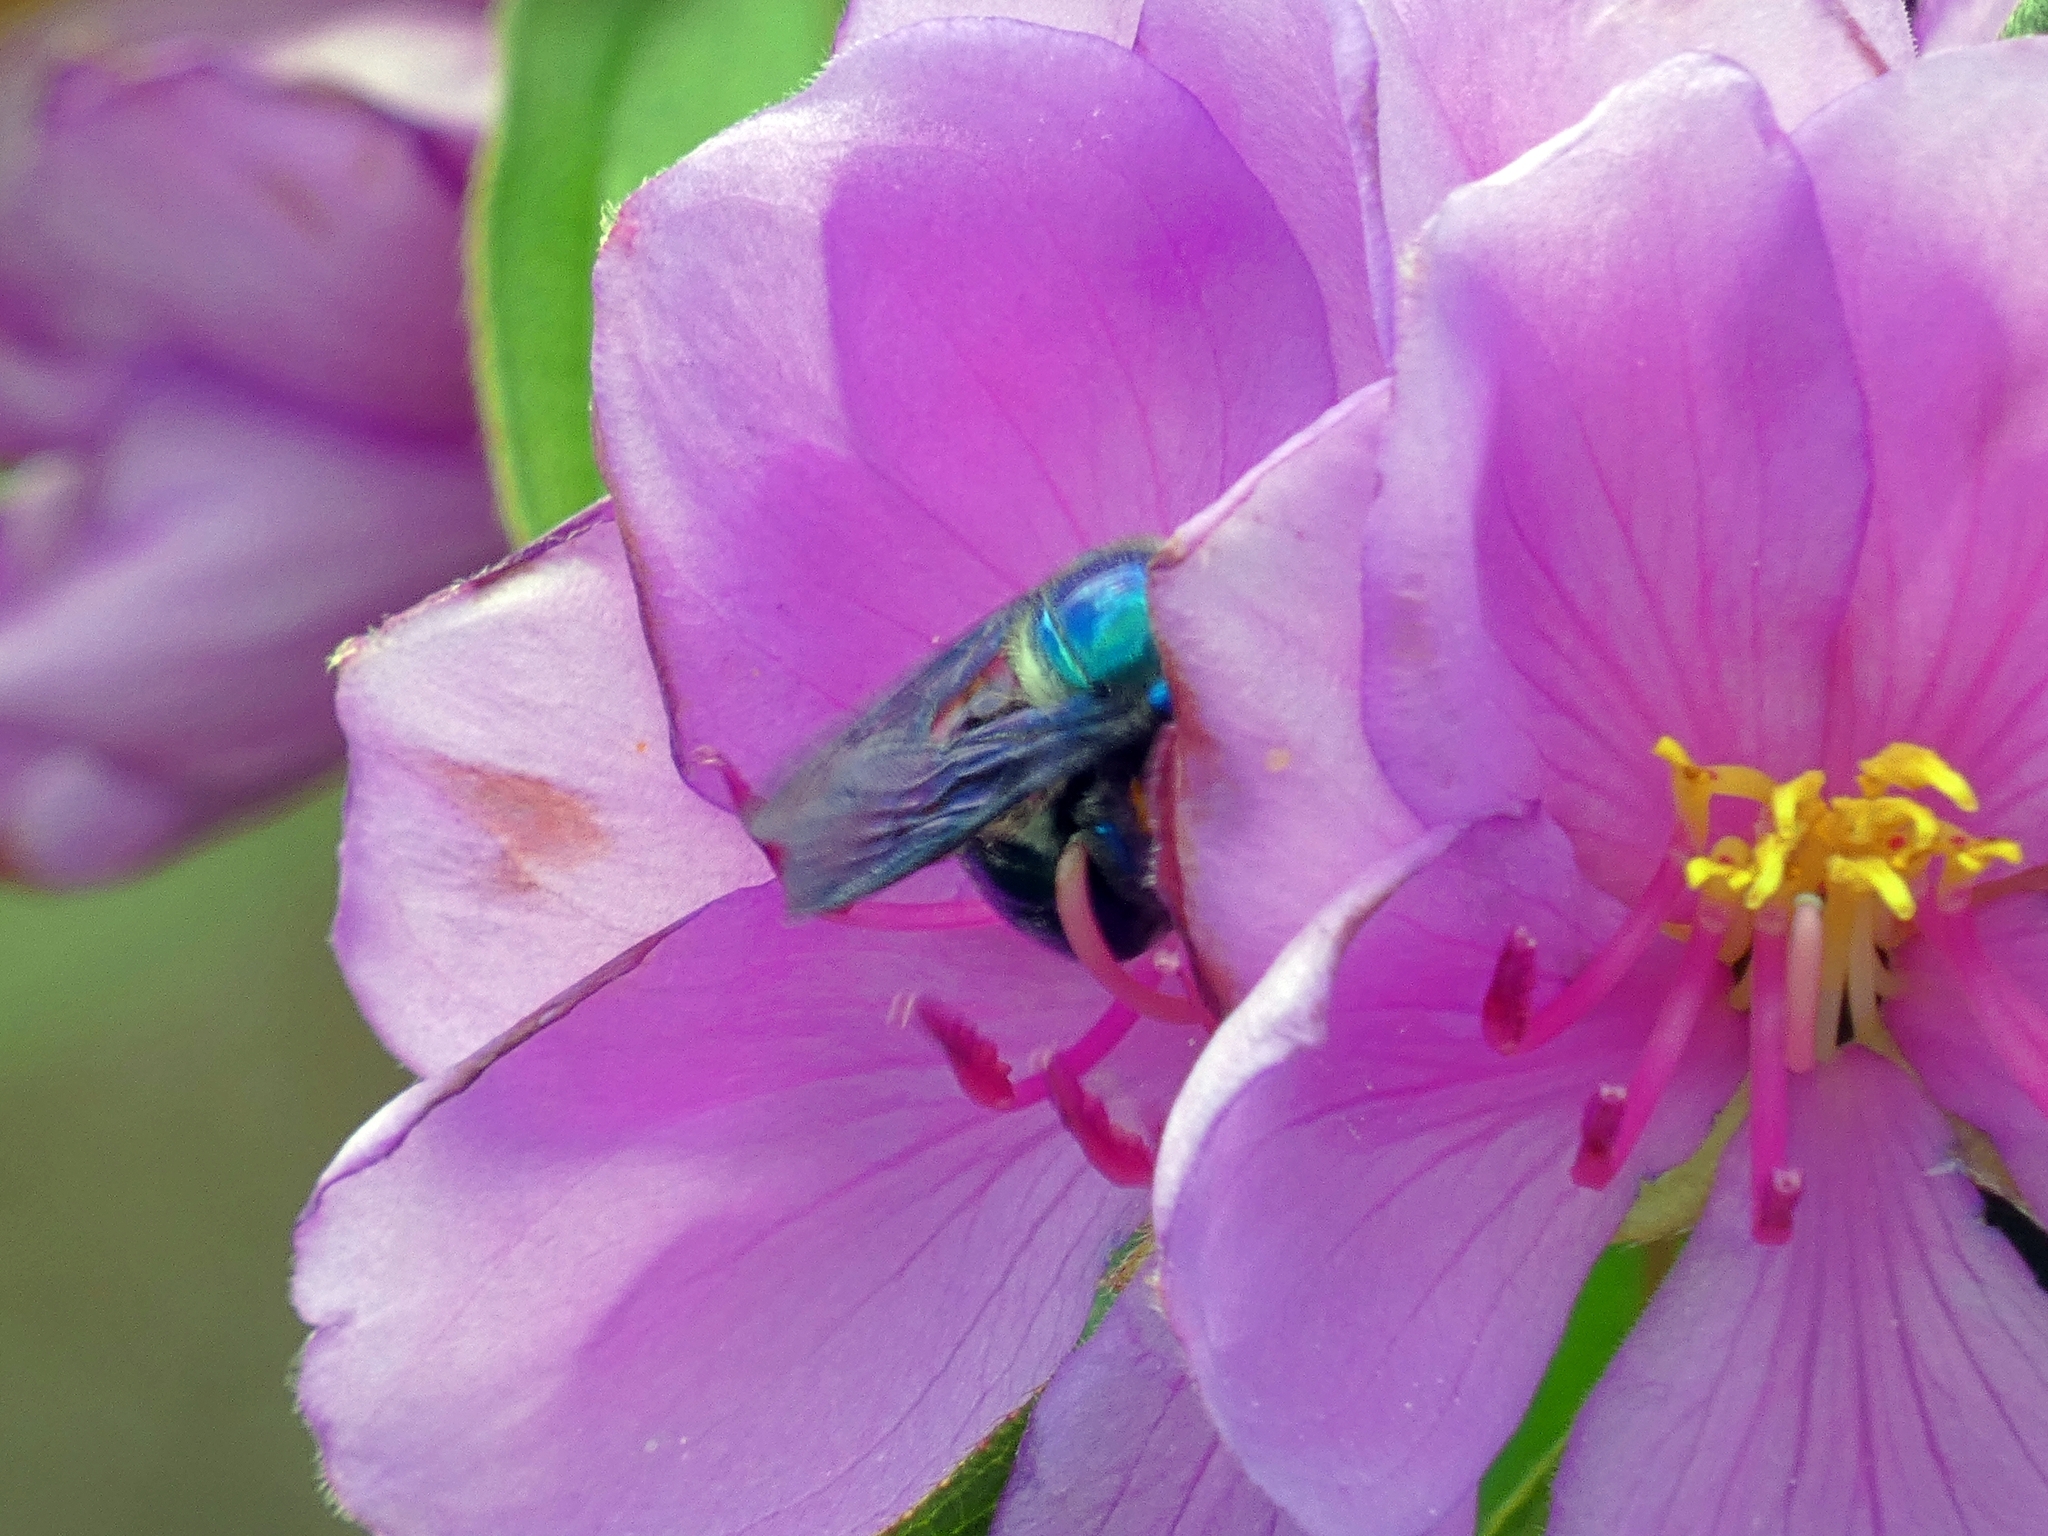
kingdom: Animalia
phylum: Arthropoda
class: Insecta
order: Hymenoptera
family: Apidae
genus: Xylocopa
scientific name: Xylocopa bombylans
